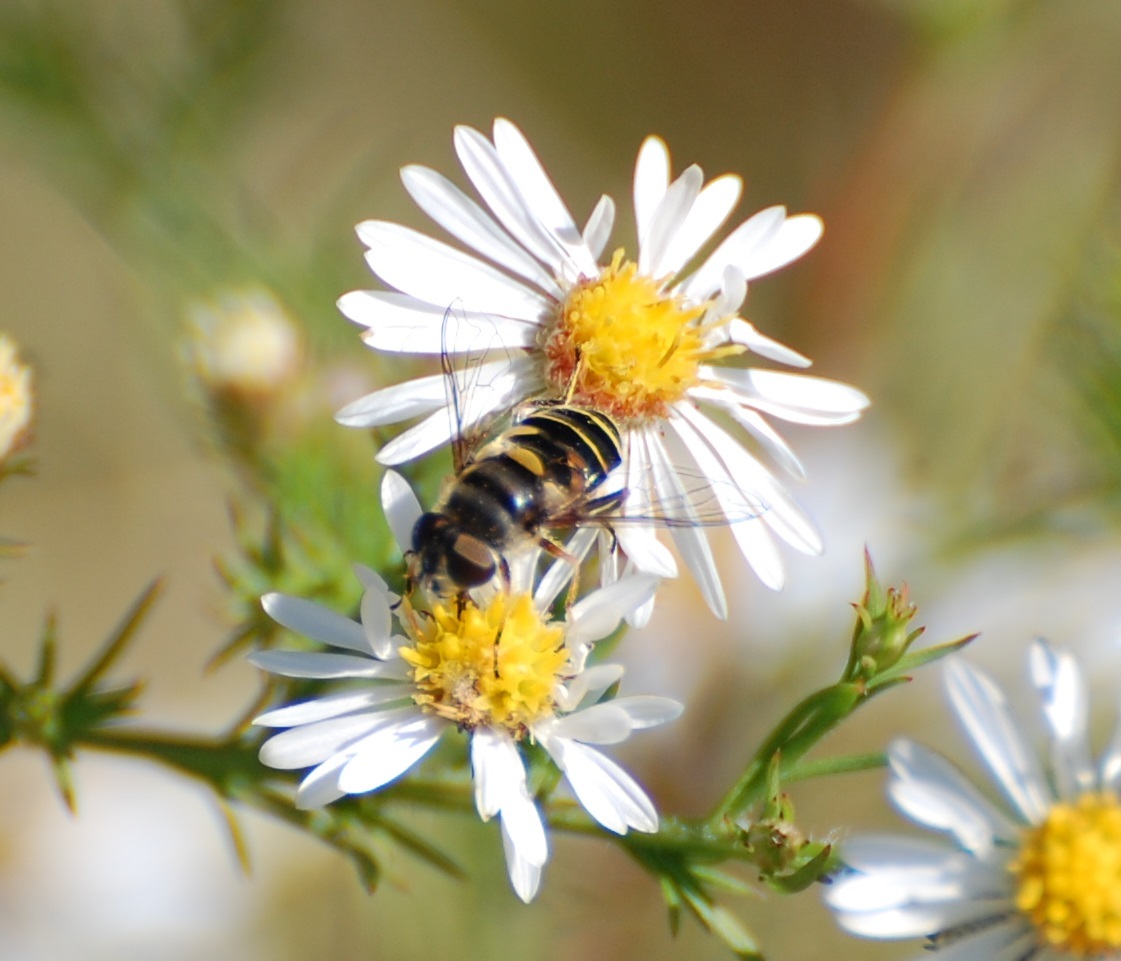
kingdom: Animalia
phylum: Arthropoda
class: Insecta
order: Diptera
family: Syrphidae
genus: Eristalis
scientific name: Eristalis transversa
